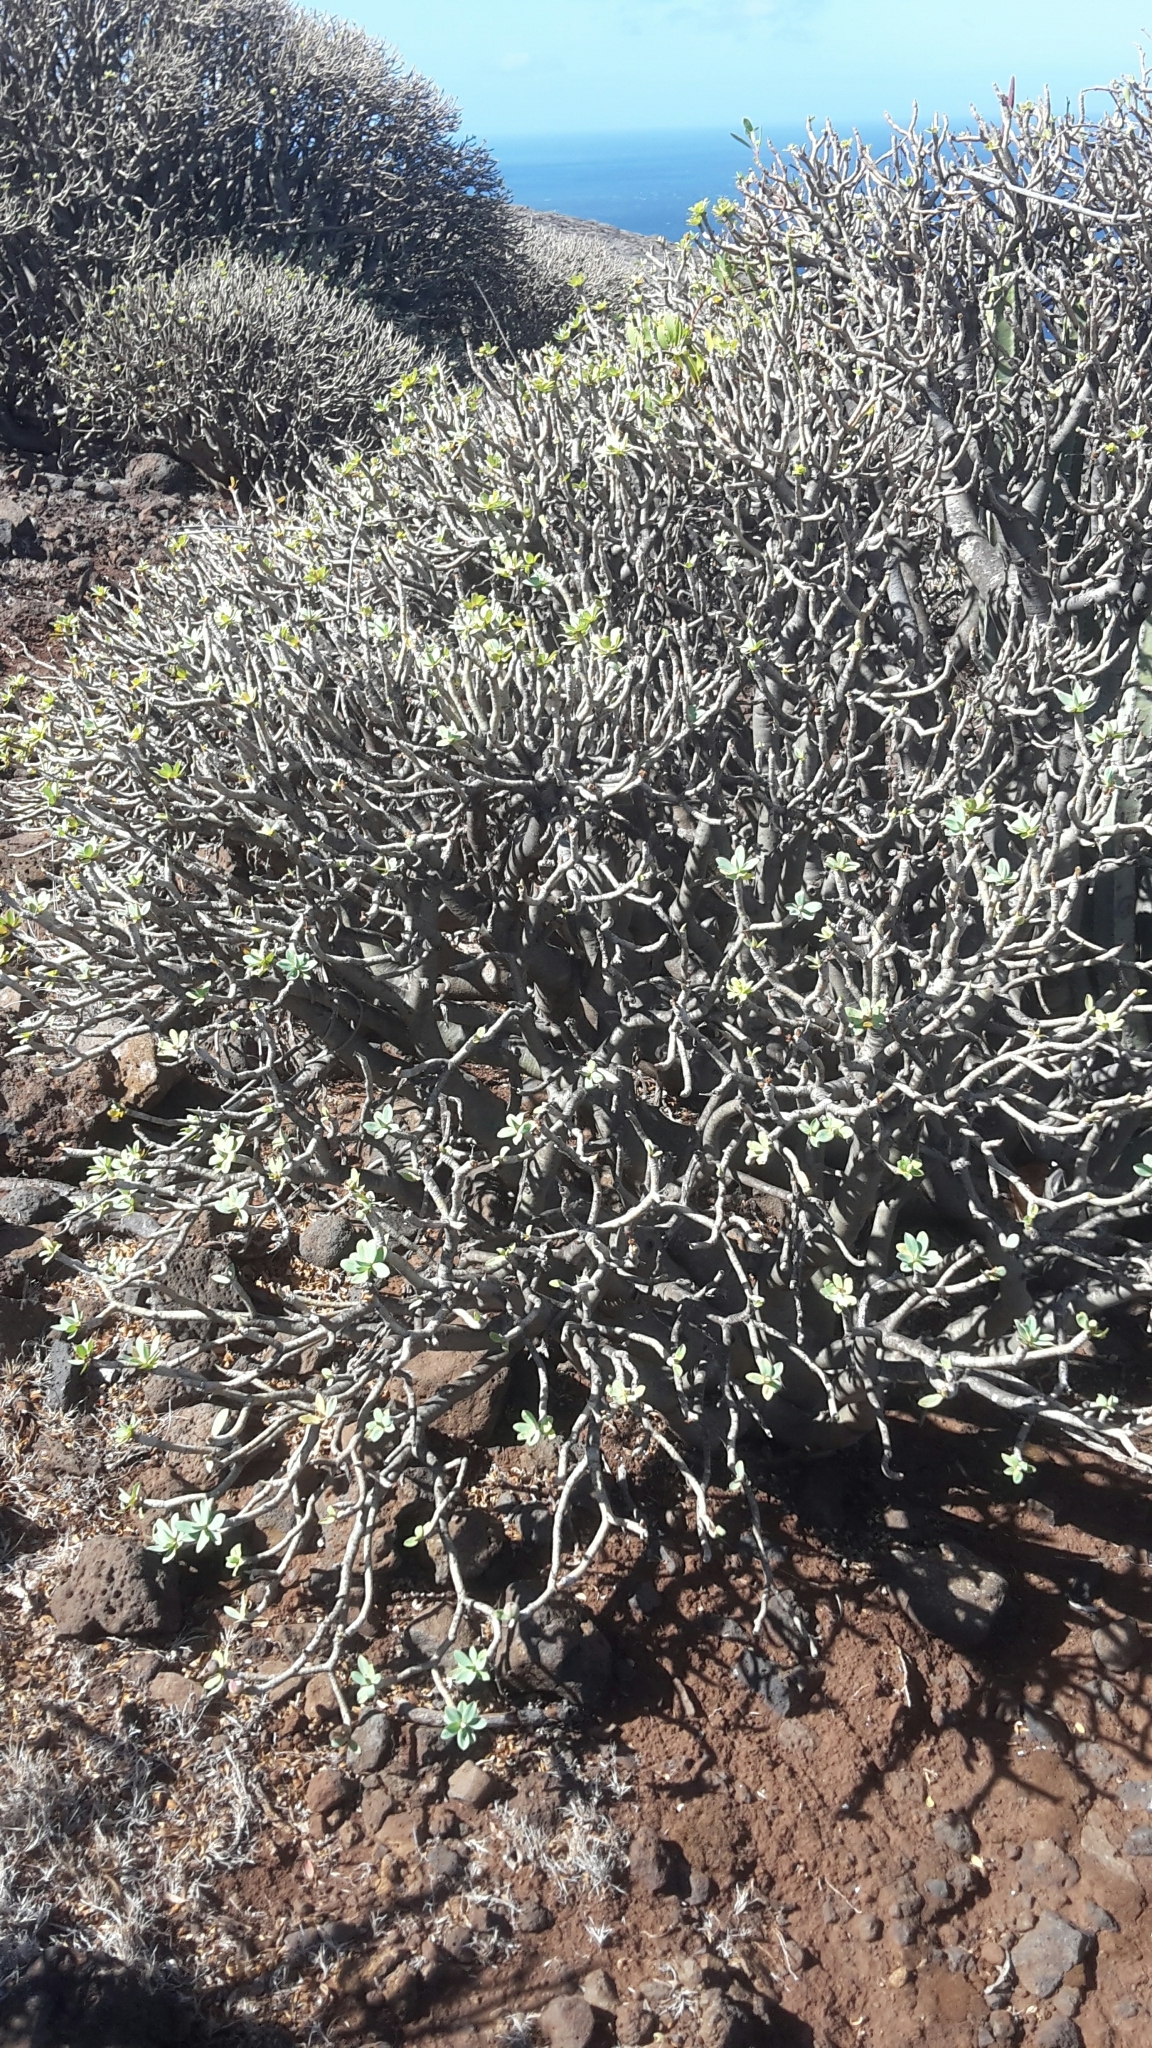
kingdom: Plantae
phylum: Tracheophyta
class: Magnoliopsida
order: Malpighiales
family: Euphorbiaceae
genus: Euphorbia
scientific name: Euphorbia balsamifera
